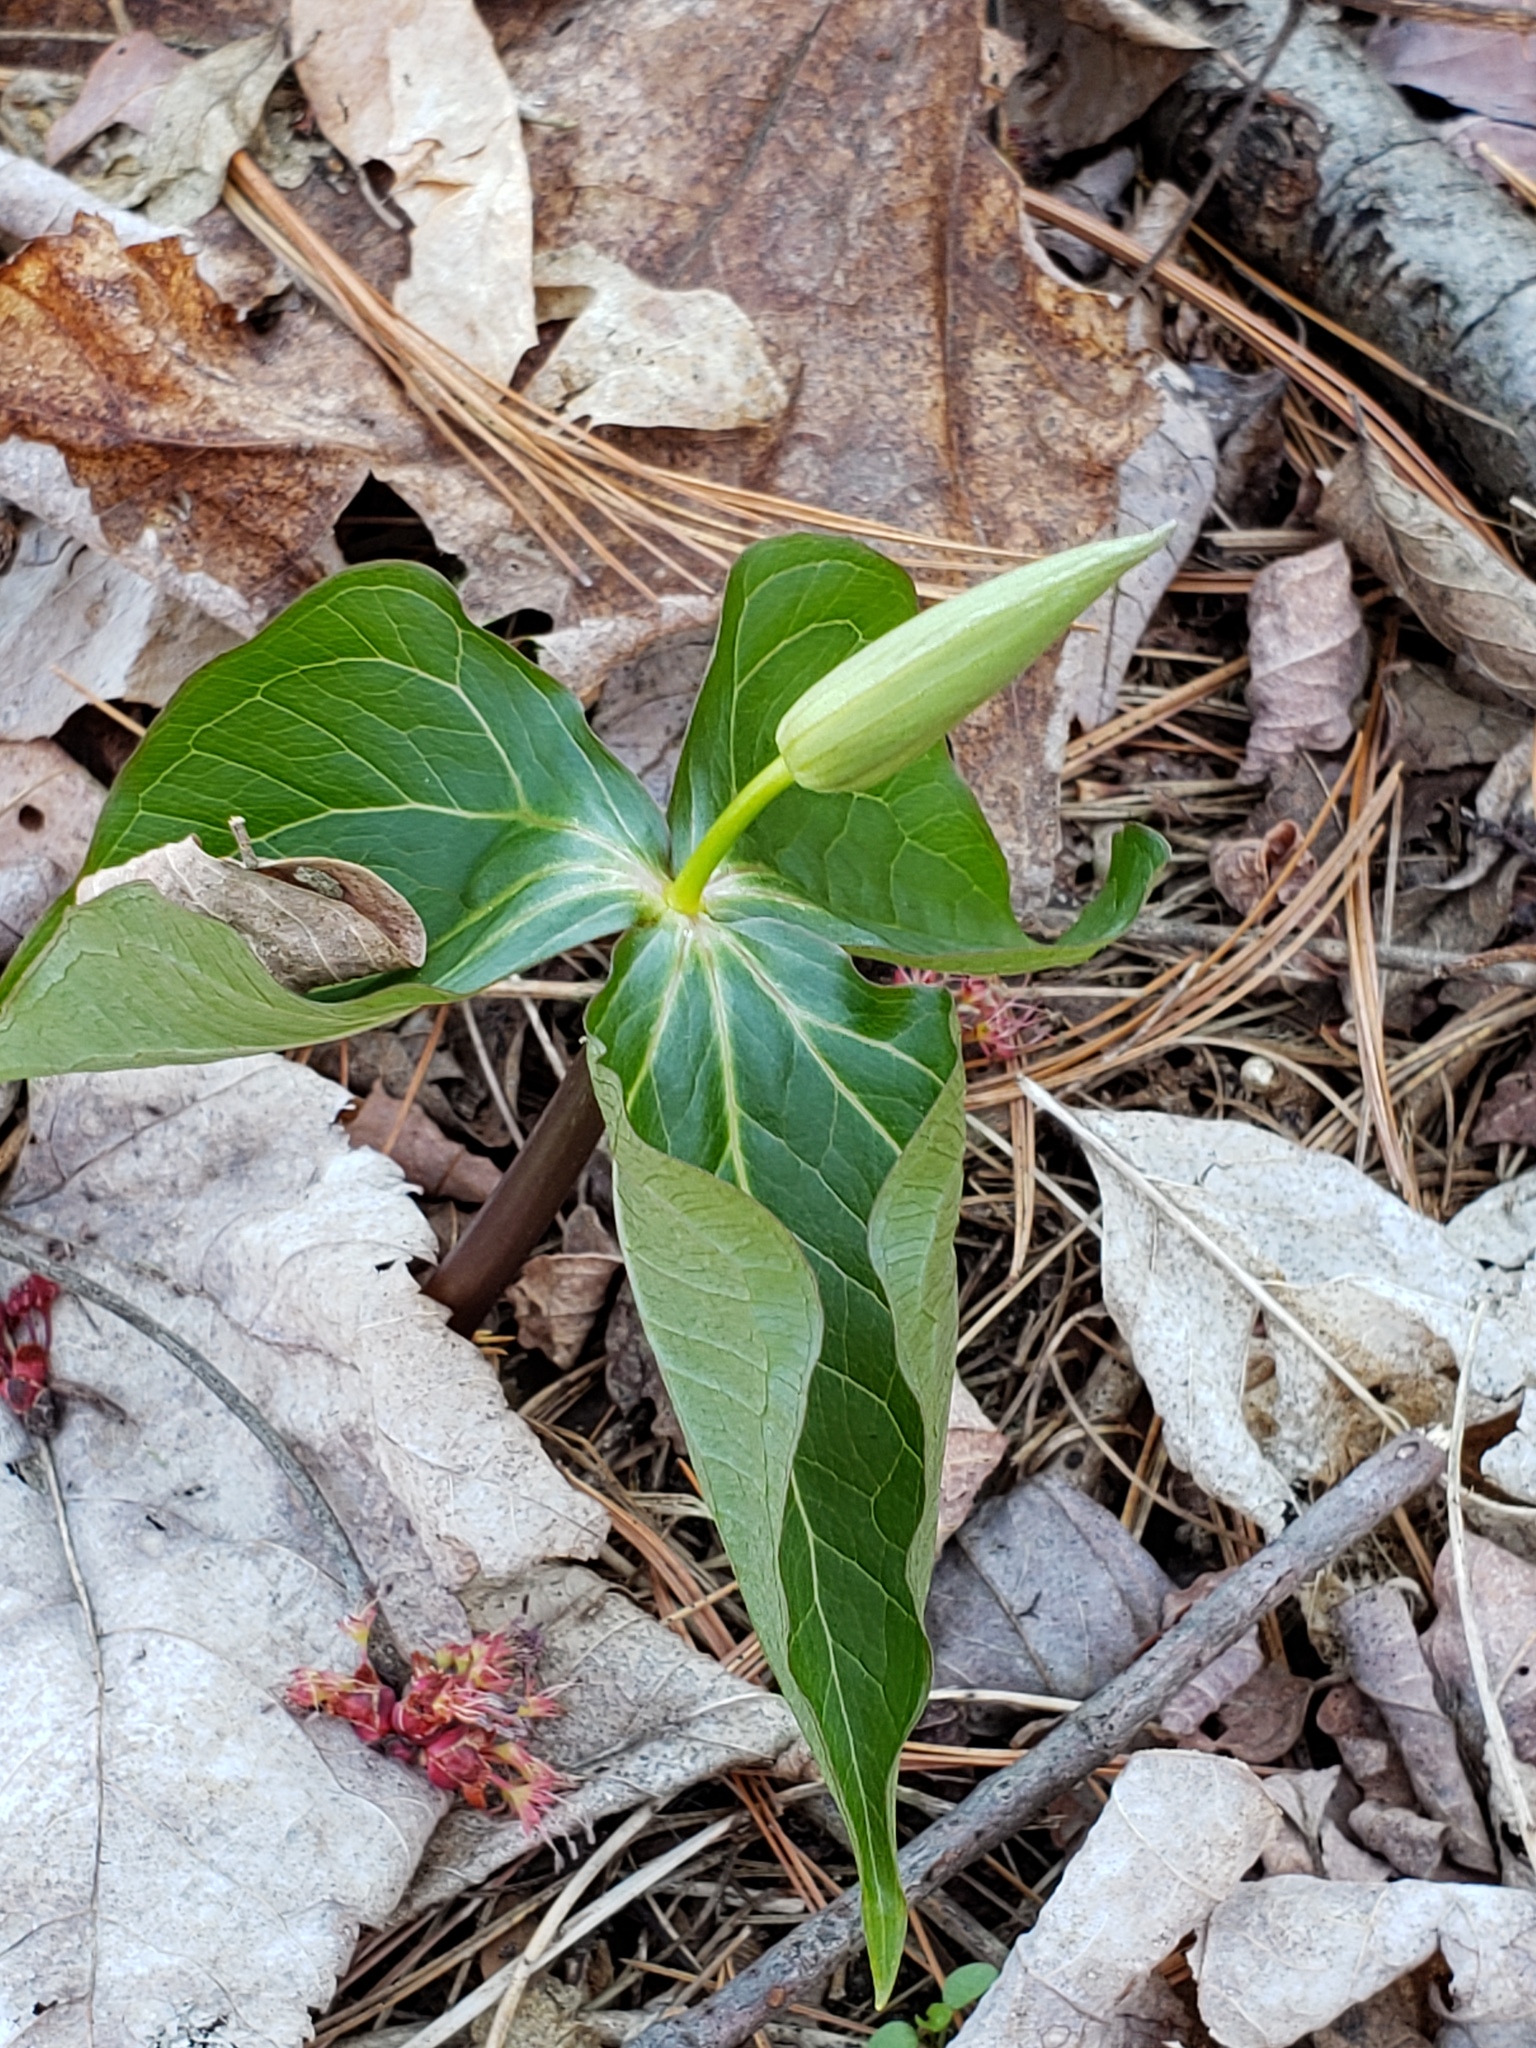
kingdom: Plantae
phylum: Tracheophyta
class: Liliopsida
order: Liliales
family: Melanthiaceae
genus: Trillium
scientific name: Trillium erectum
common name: Purple trillium
